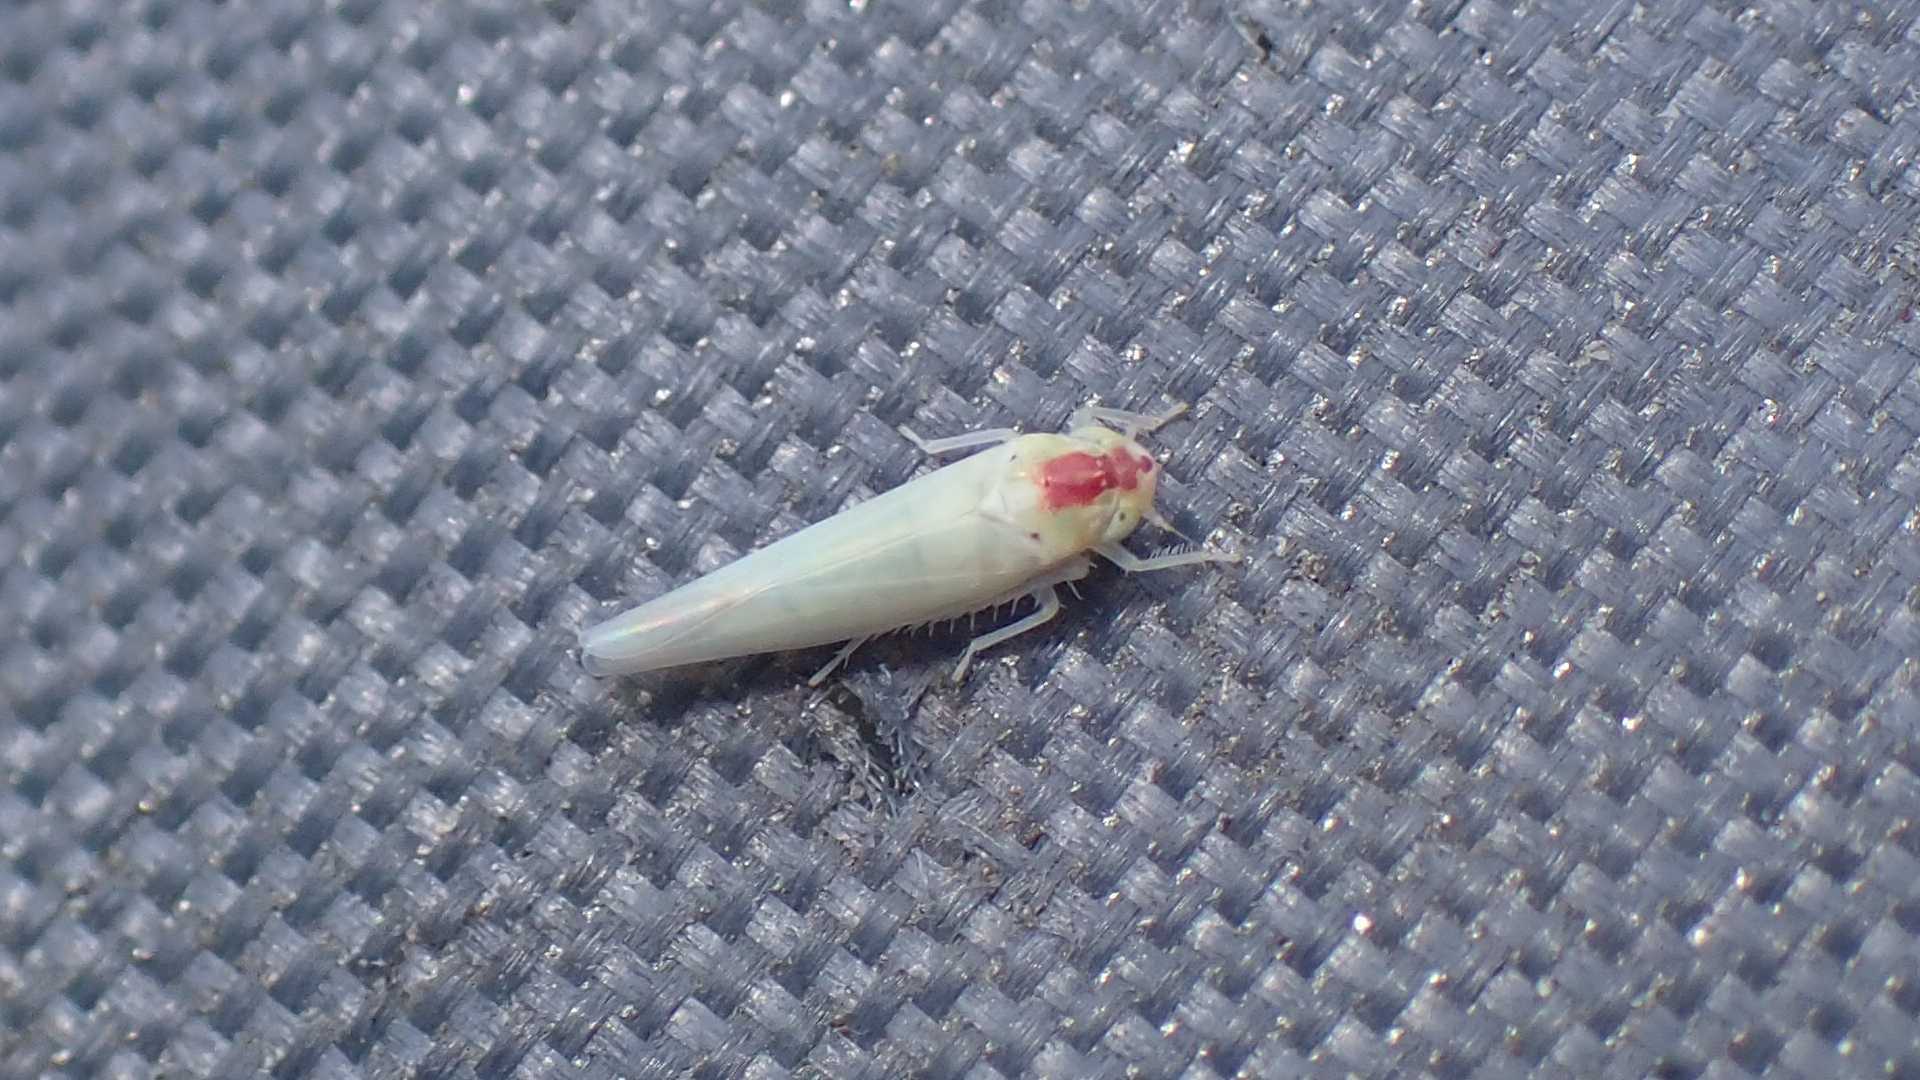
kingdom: Animalia
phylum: Arthropoda
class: Insecta
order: Hemiptera
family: Cicadellidae
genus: Zygina
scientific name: Zygina nivea
